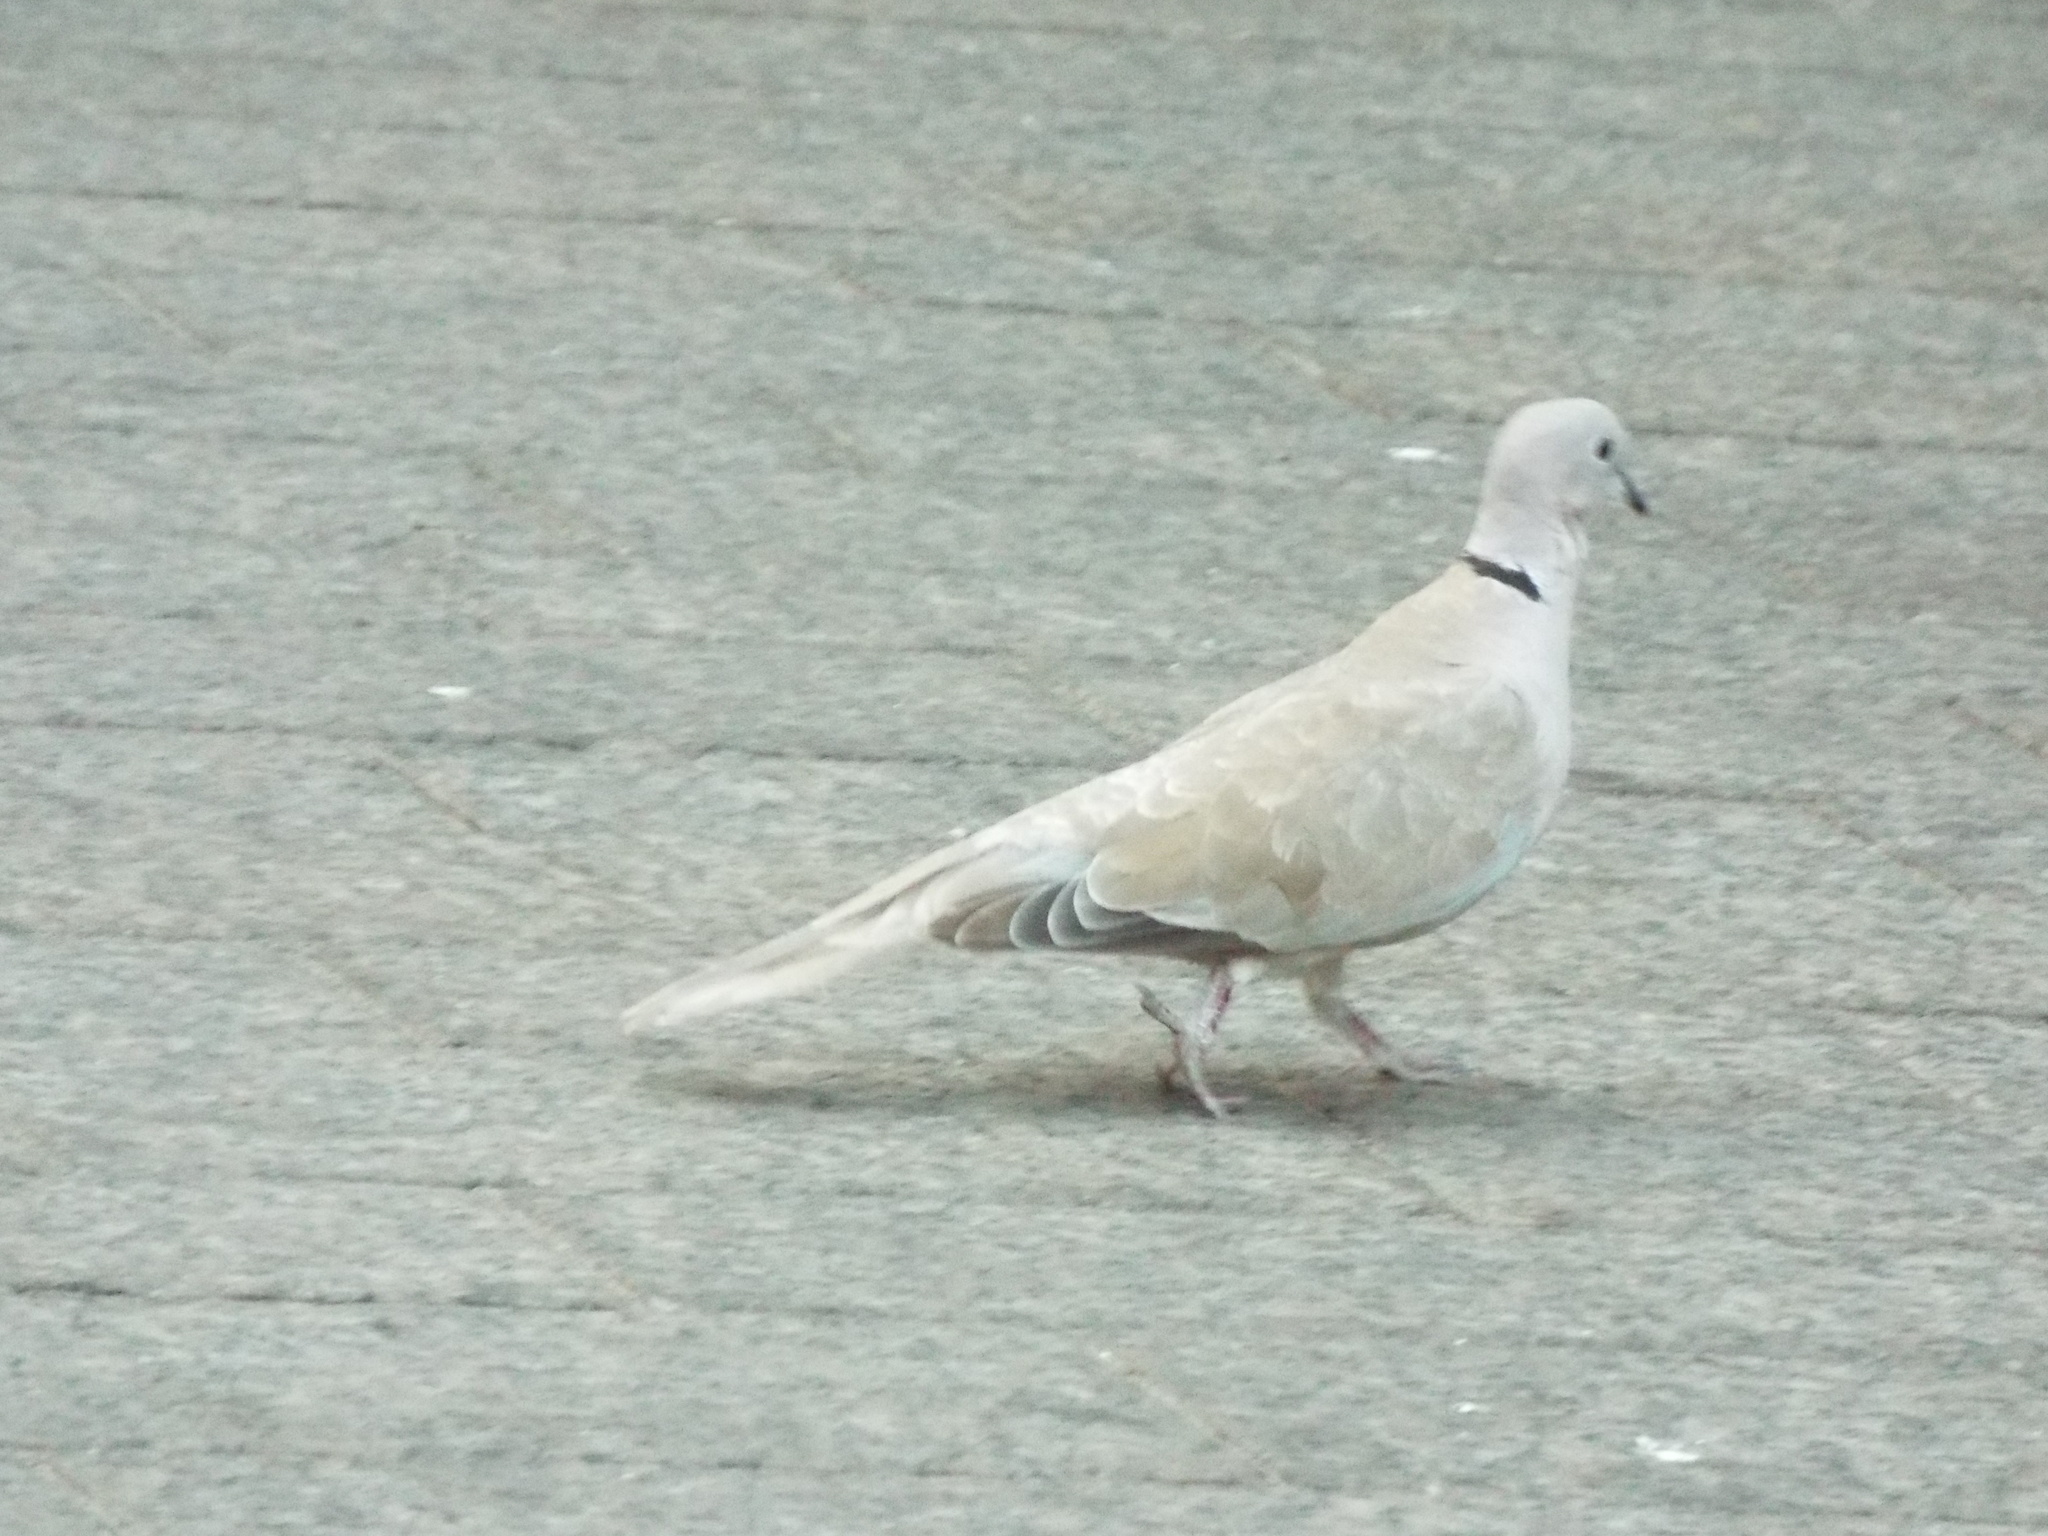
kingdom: Animalia
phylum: Chordata
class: Aves
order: Columbiformes
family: Columbidae
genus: Streptopelia
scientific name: Streptopelia decaocto
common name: Eurasian collared dove
